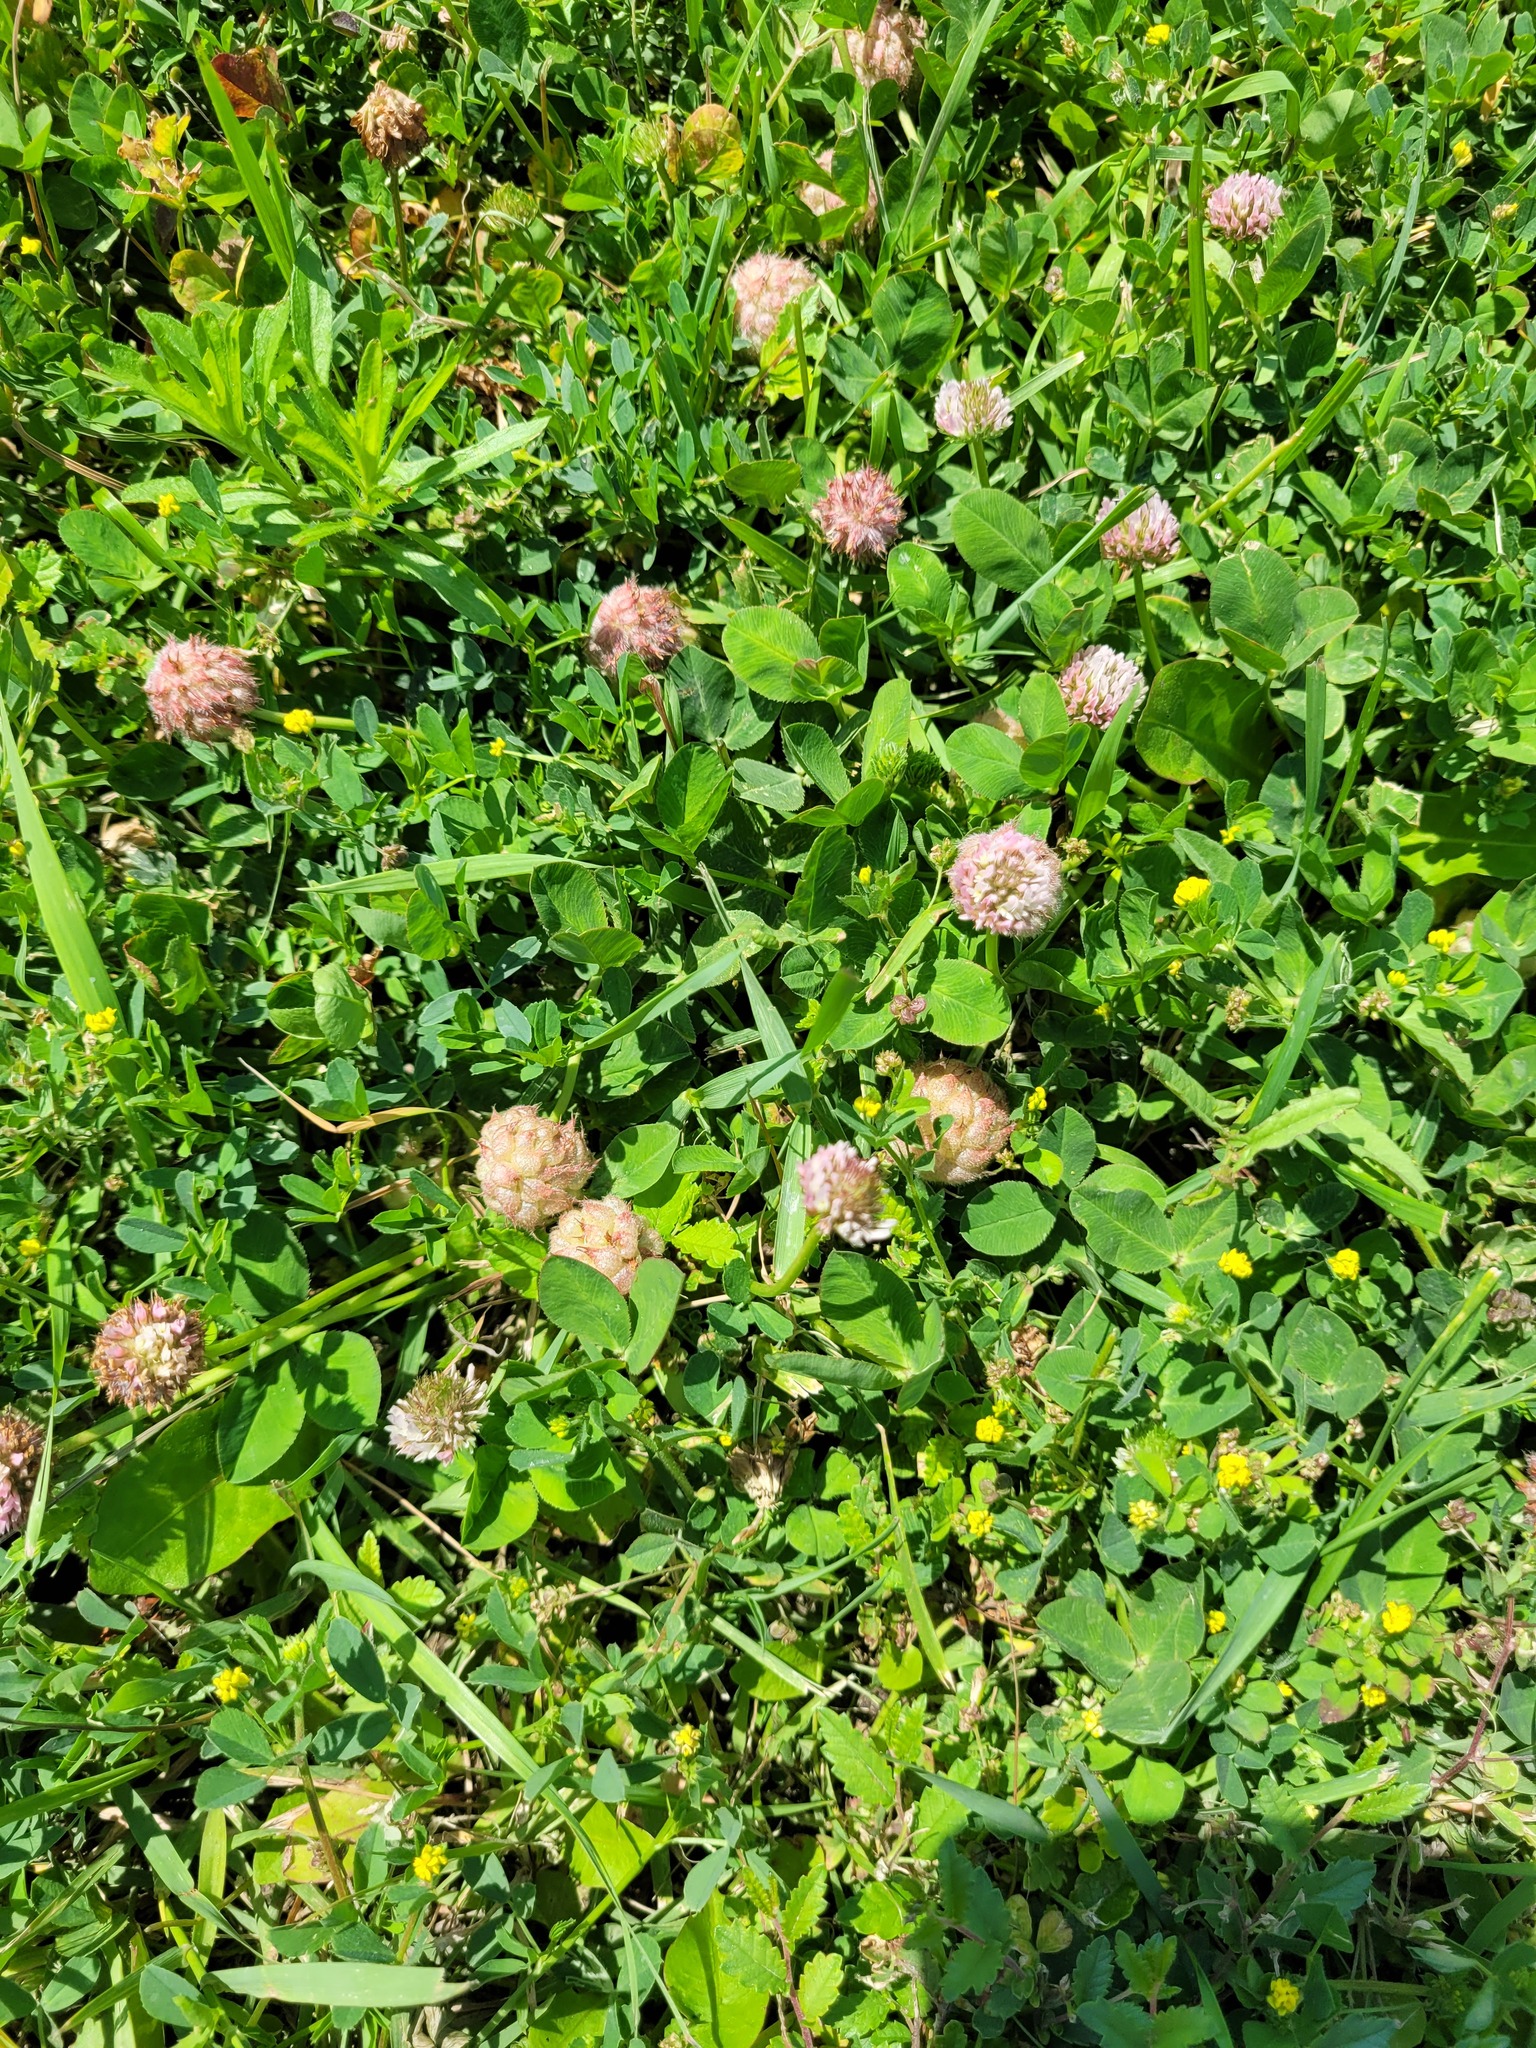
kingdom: Plantae
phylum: Tracheophyta
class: Magnoliopsida
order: Fabales
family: Fabaceae
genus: Trifolium
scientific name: Trifolium fragiferum
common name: Strawberry clover
